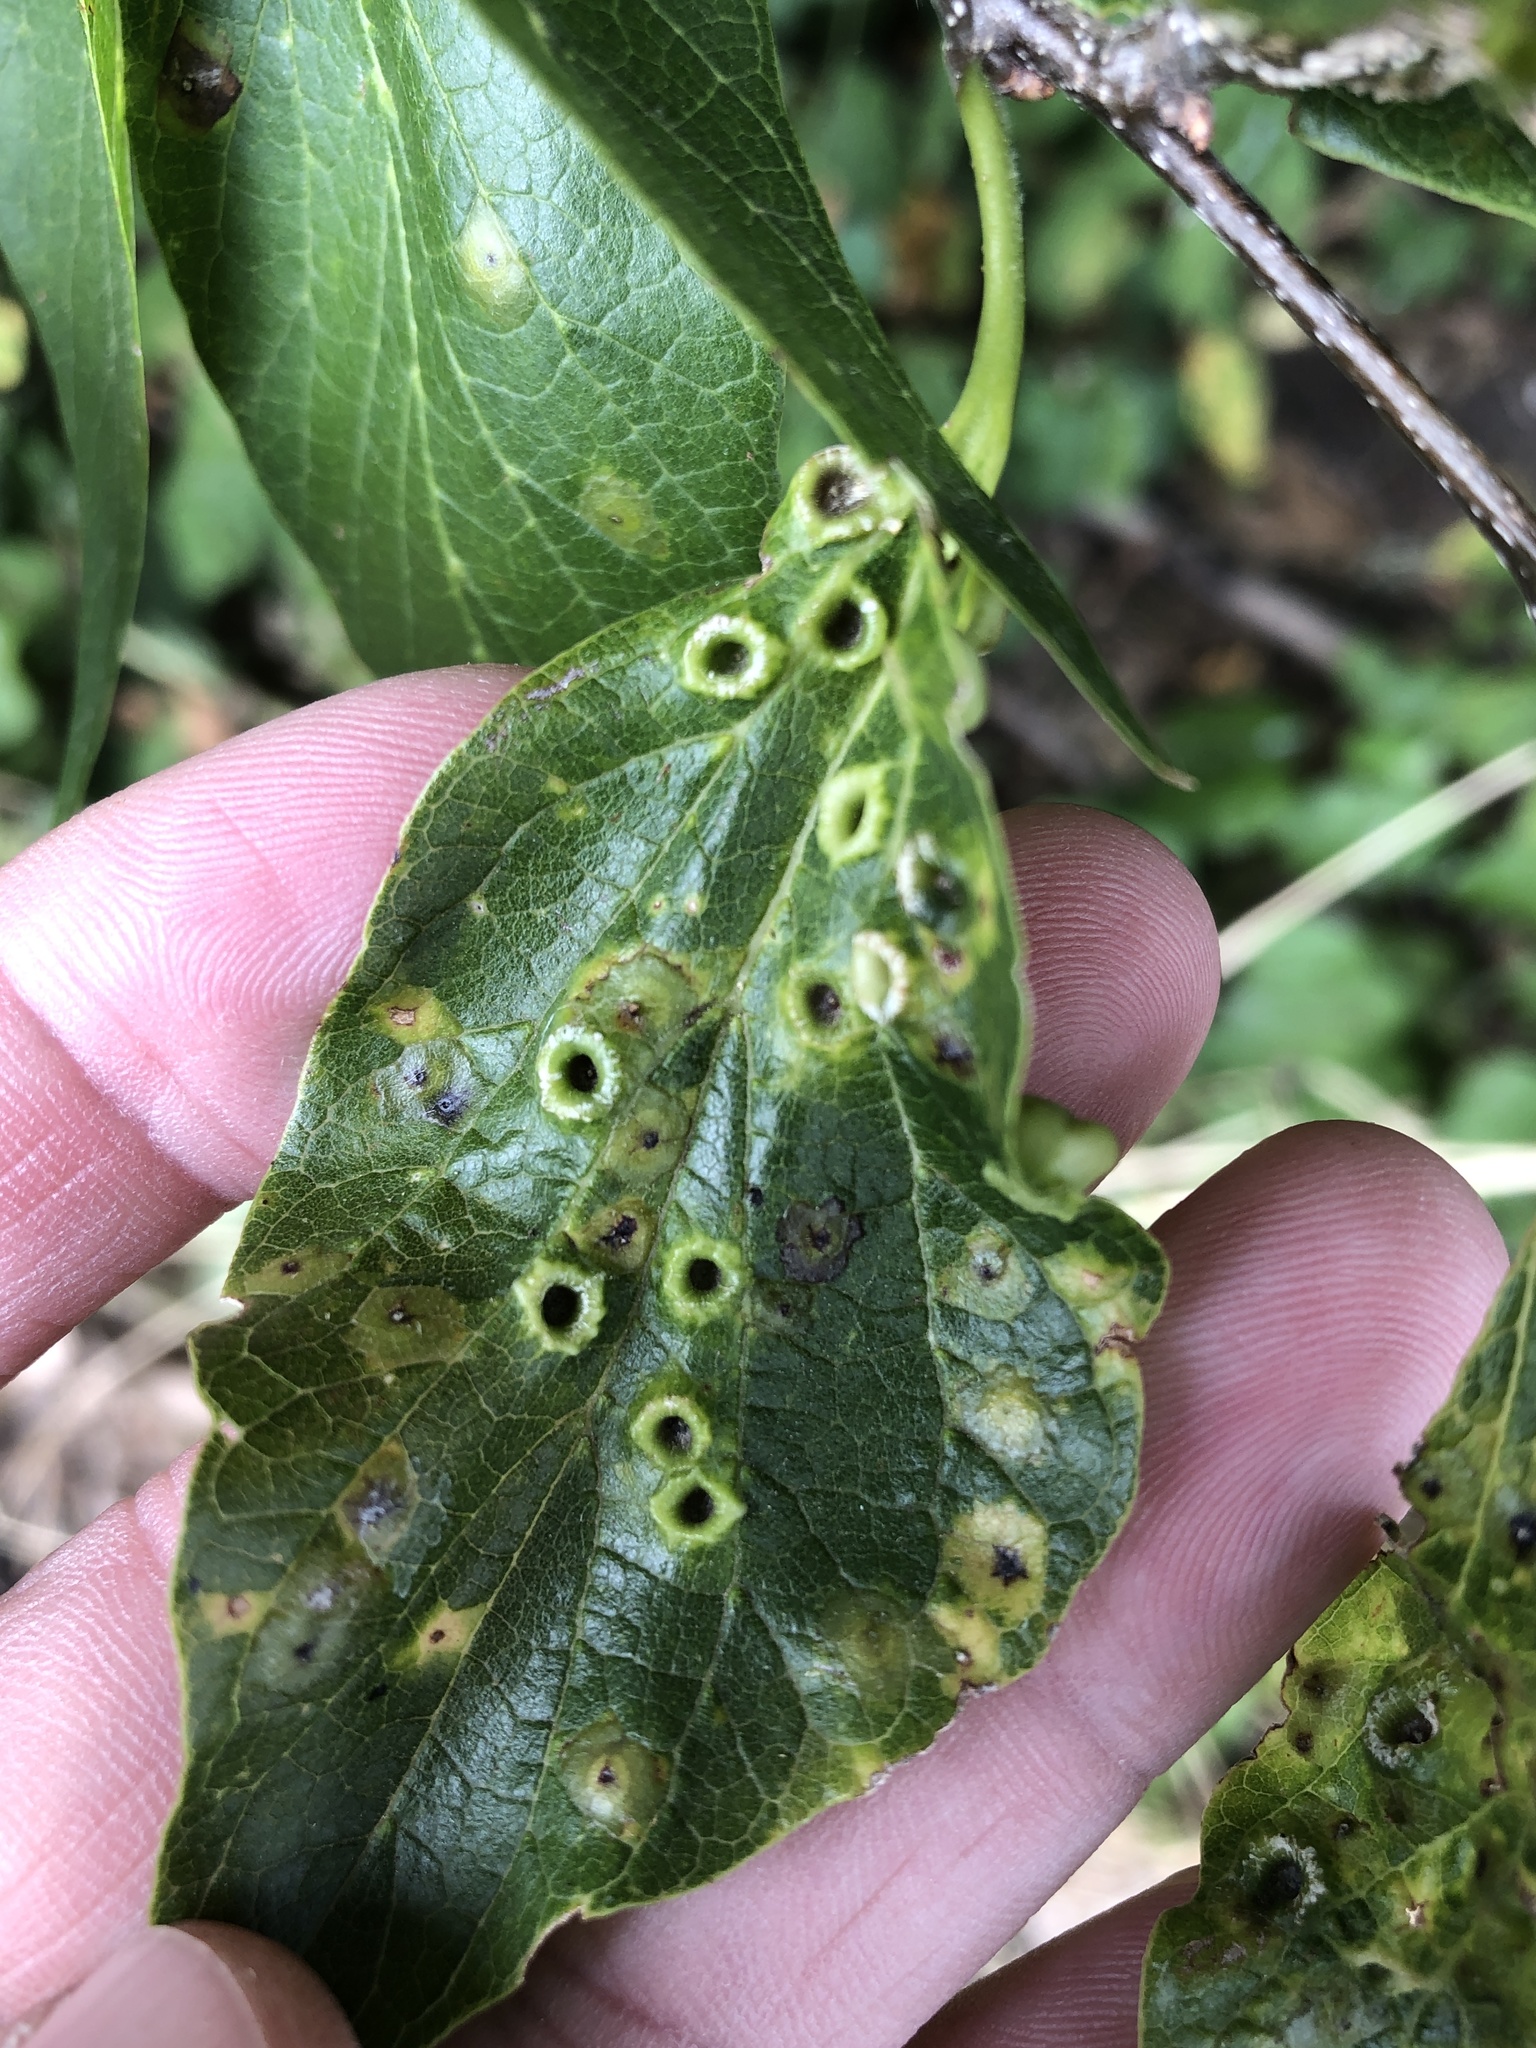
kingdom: Animalia
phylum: Arthropoda
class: Insecta
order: Hemiptera
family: Aphalaridae
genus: Pachypsylla
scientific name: Pachypsylla celtidismamma
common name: Hackberry nipplegall psyllid
